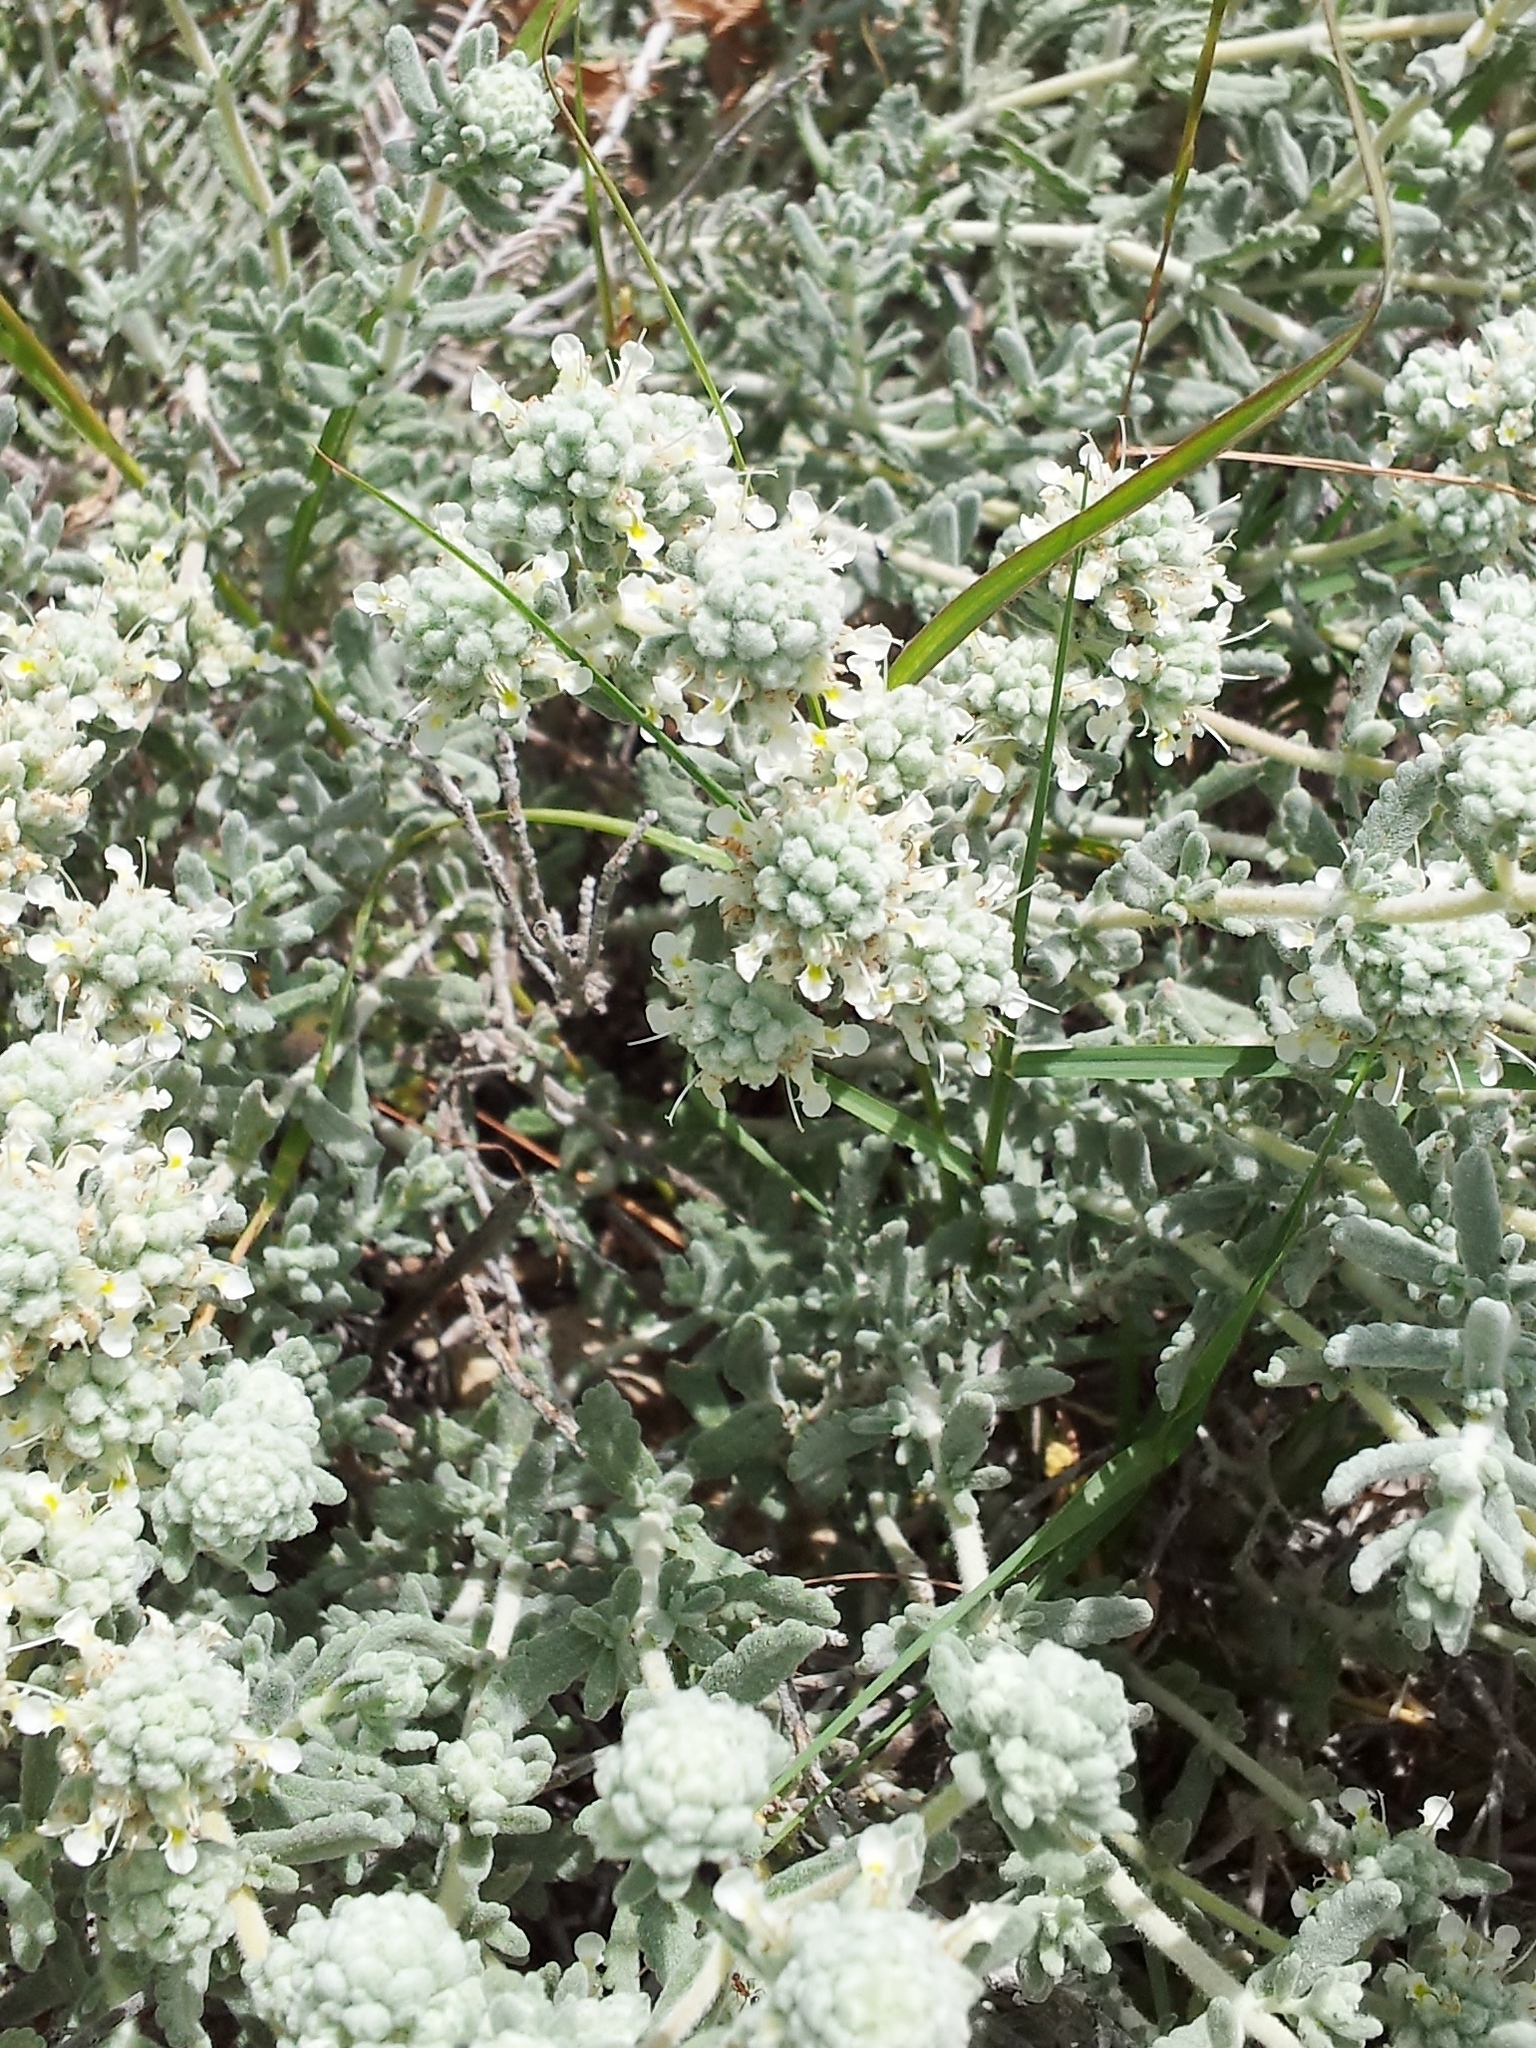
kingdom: Plantae
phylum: Tracheophyta
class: Magnoliopsida
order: Lamiales
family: Lamiaceae
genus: Teucrium
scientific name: Teucrium capitatum
